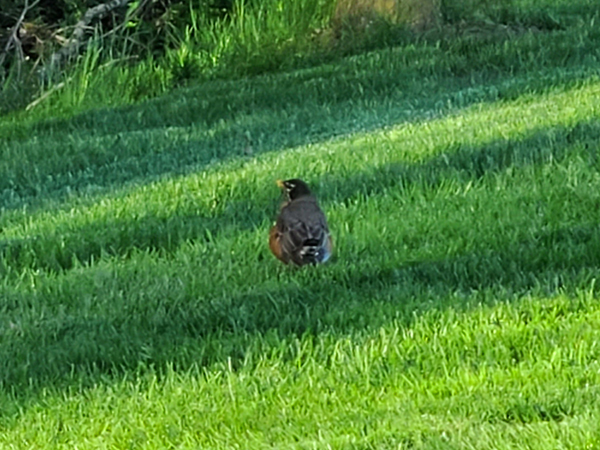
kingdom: Animalia
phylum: Chordata
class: Aves
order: Passeriformes
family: Turdidae
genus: Turdus
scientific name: Turdus migratorius
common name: American robin
